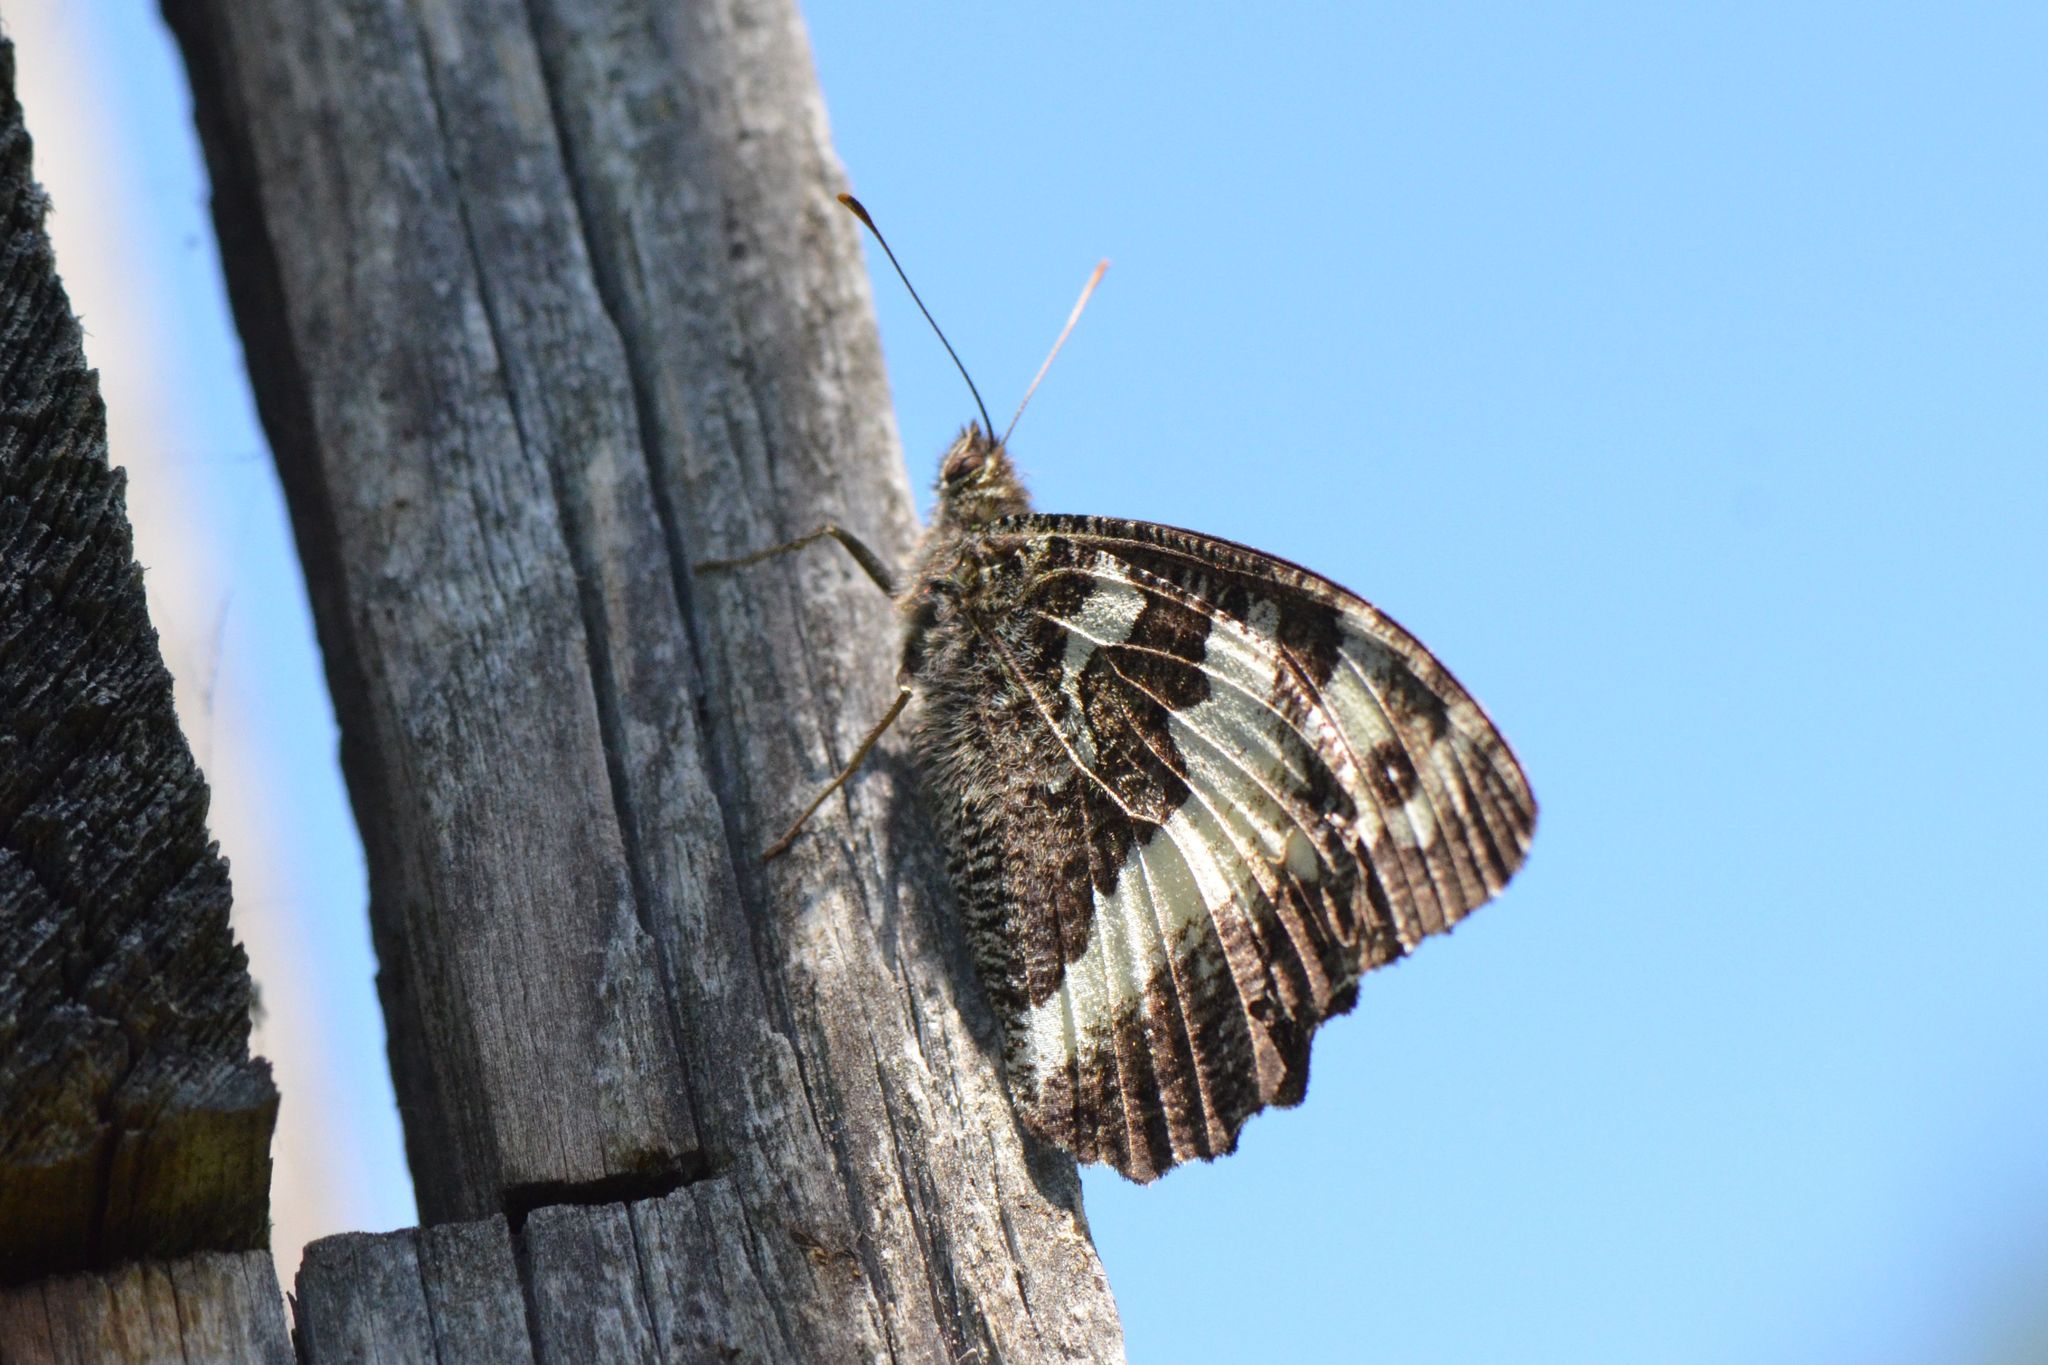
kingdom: Animalia
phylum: Arthropoda
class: Insecta
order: Lepidoptera
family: Lycaenidae
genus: Loweia
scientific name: Loweia tityrus
